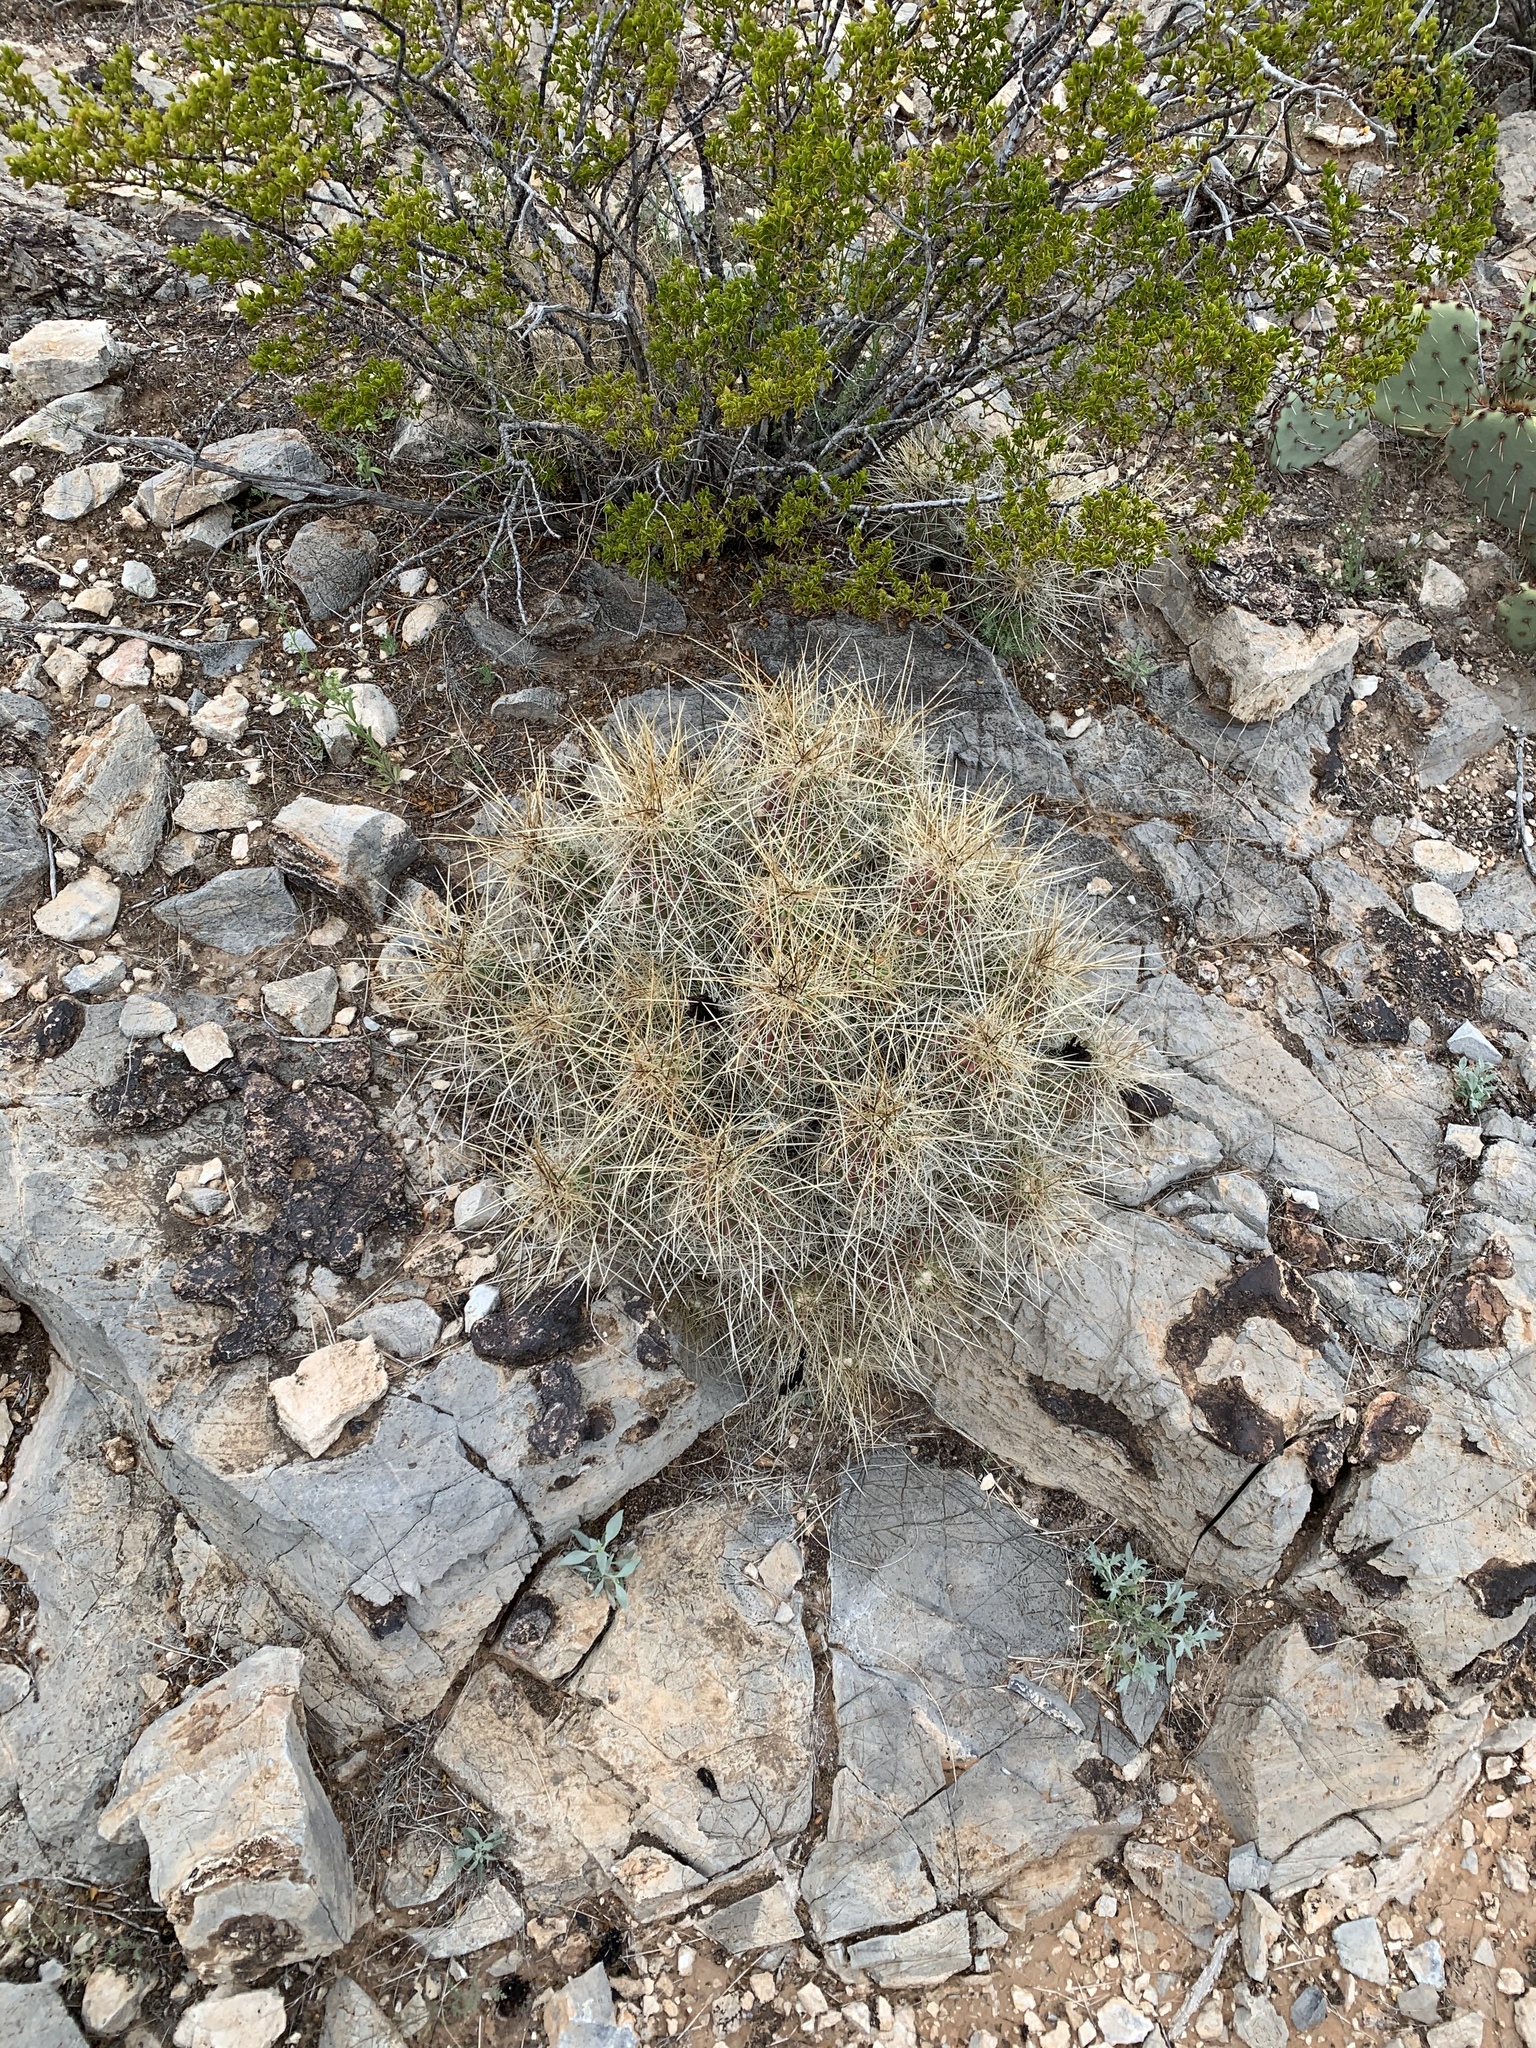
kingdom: Plantae
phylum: Tracheophyta
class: Magnoliopsida
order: Caryophyllales
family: Cactaceae
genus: Echinocereus
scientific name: Echinocereus stramineus
